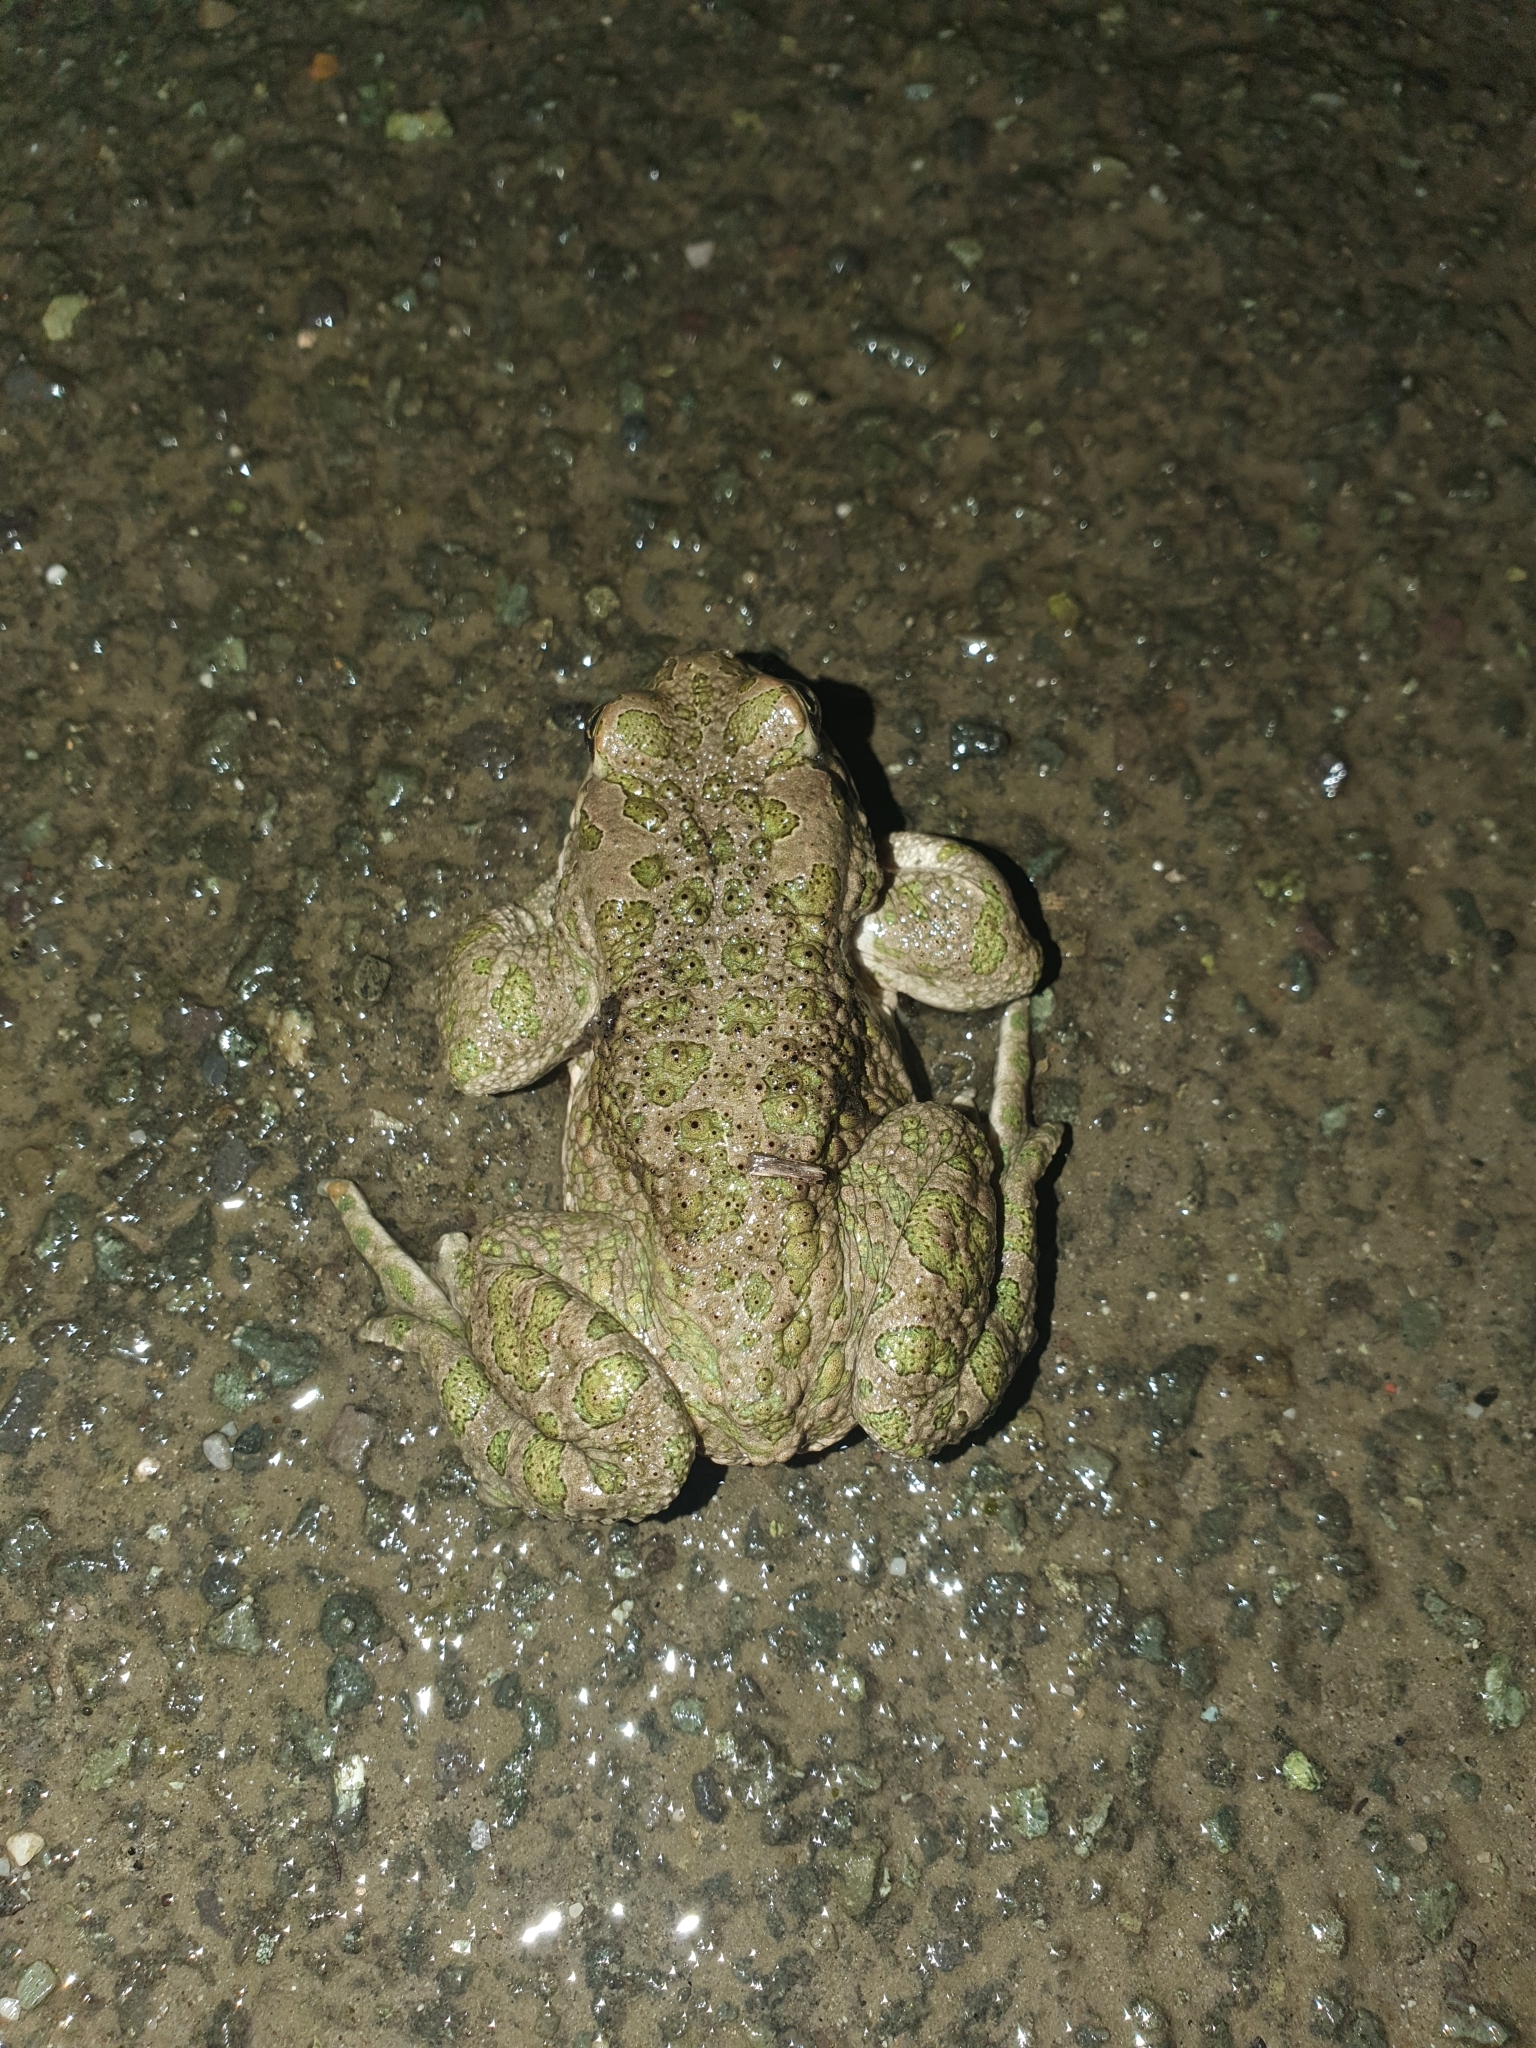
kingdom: Animalia
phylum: Chordata
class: Amphibia
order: Anura
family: Bufonidae
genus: Bufotes
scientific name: Bufotes viridis
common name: European green toad
